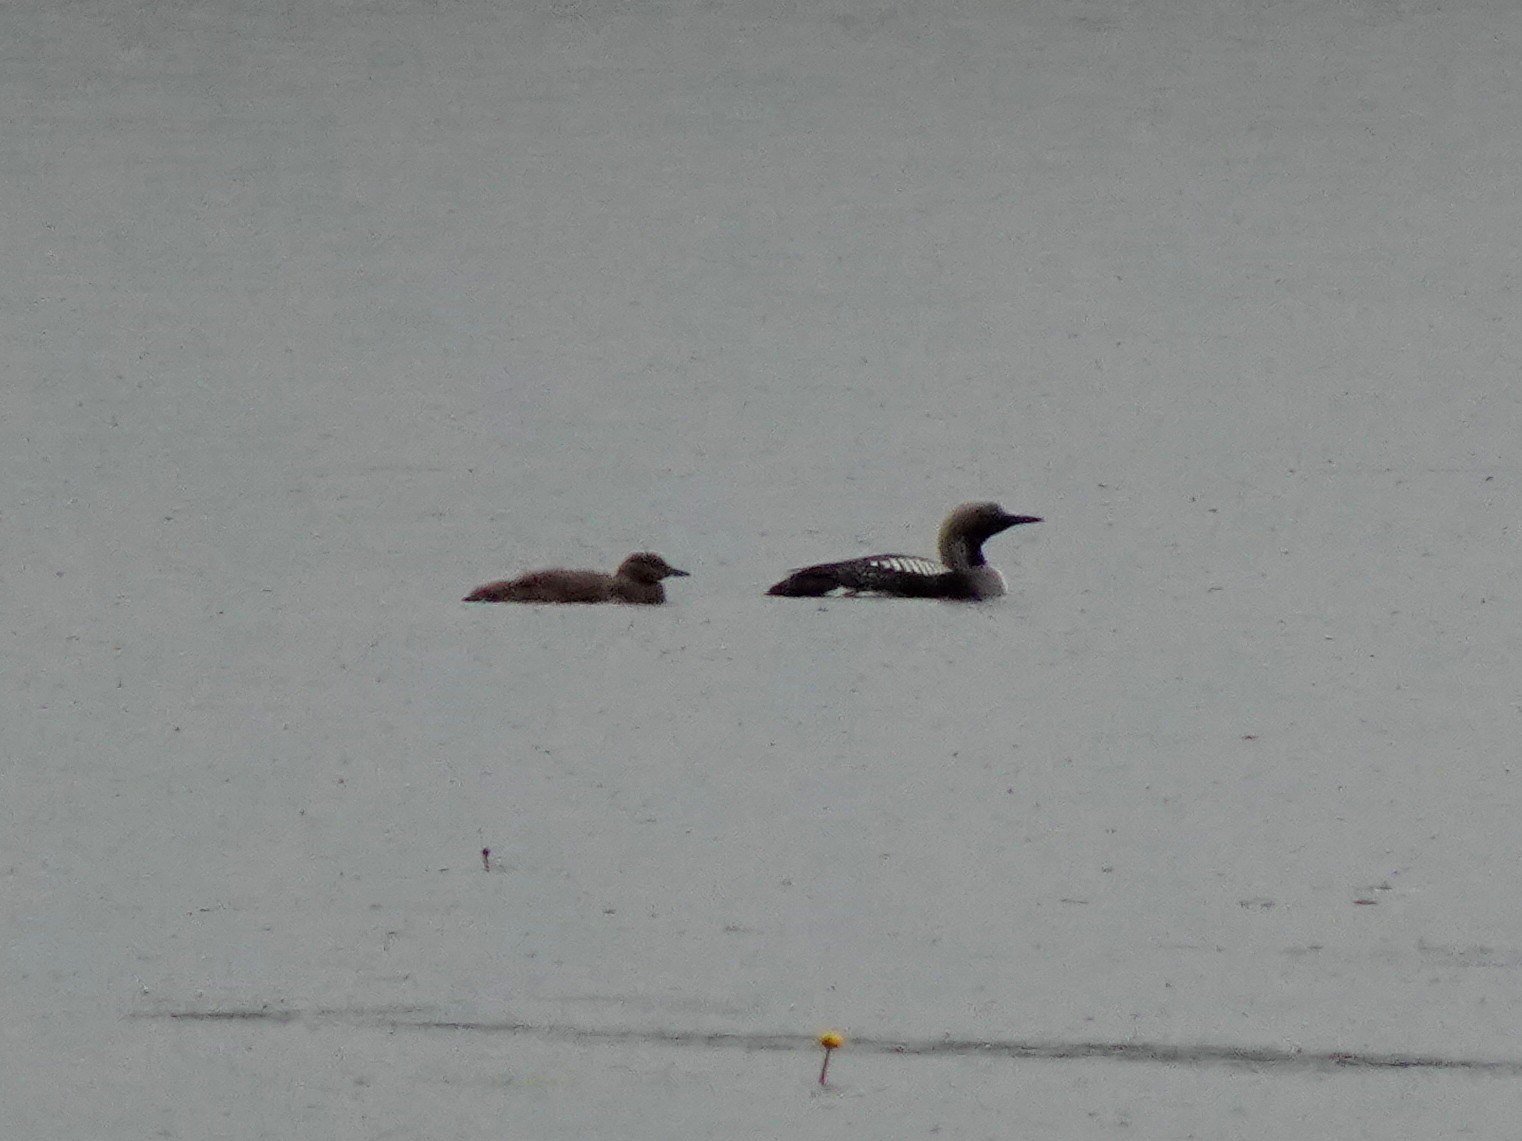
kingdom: Animalia
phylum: Chordata
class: Aves
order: Gaviiformes
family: Gaviidae
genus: Gavia
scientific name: Gavia arctica
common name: Black-throated loon
